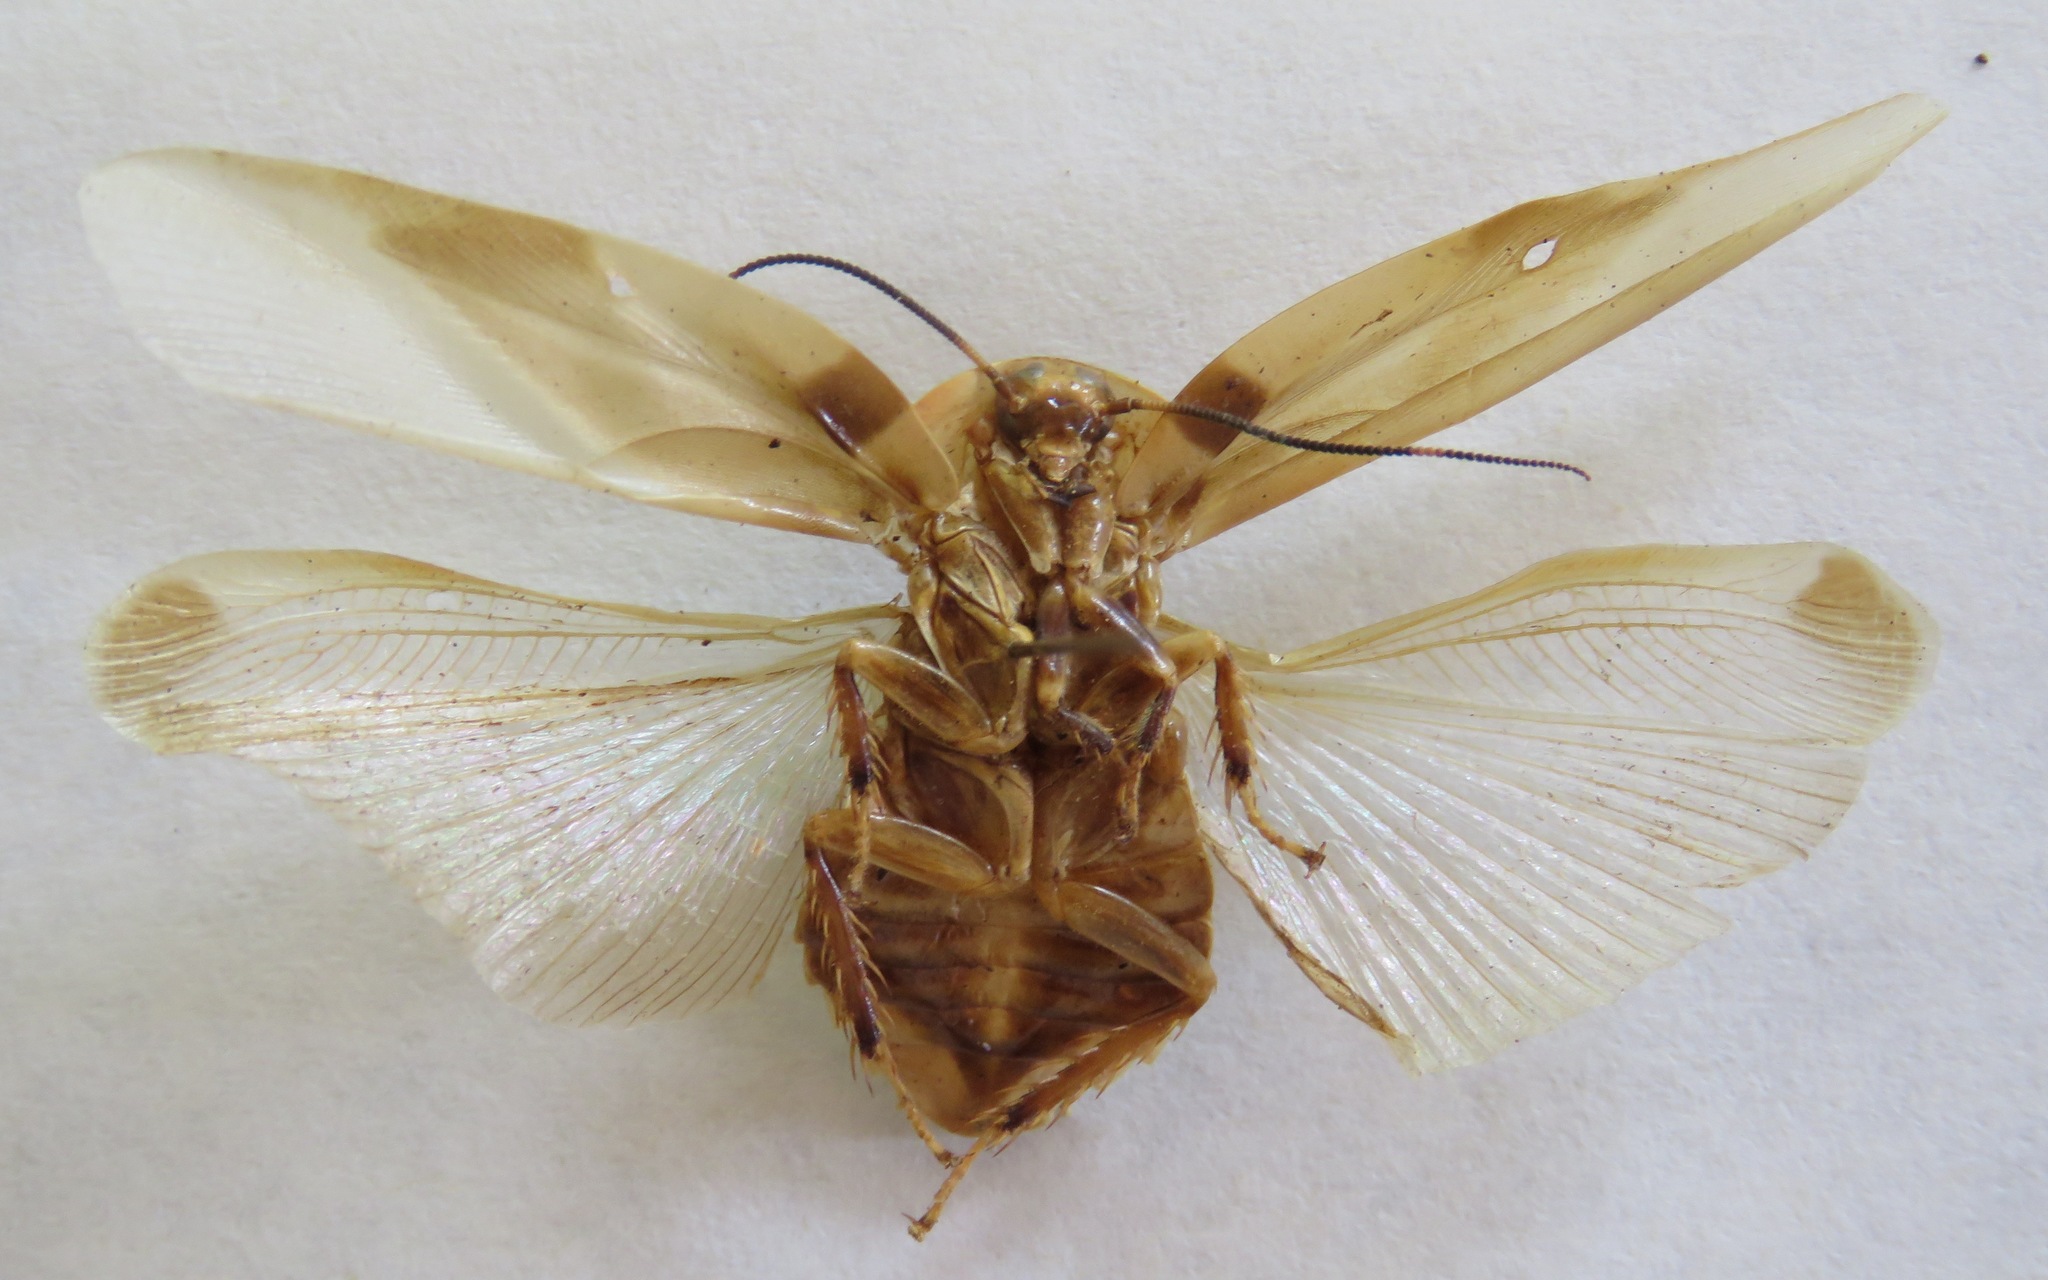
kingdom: Animalia
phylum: Arthropoda
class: Insecta
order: Blattodea
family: Blaberidae
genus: Achroblatta
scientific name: Achroblatta luteola
